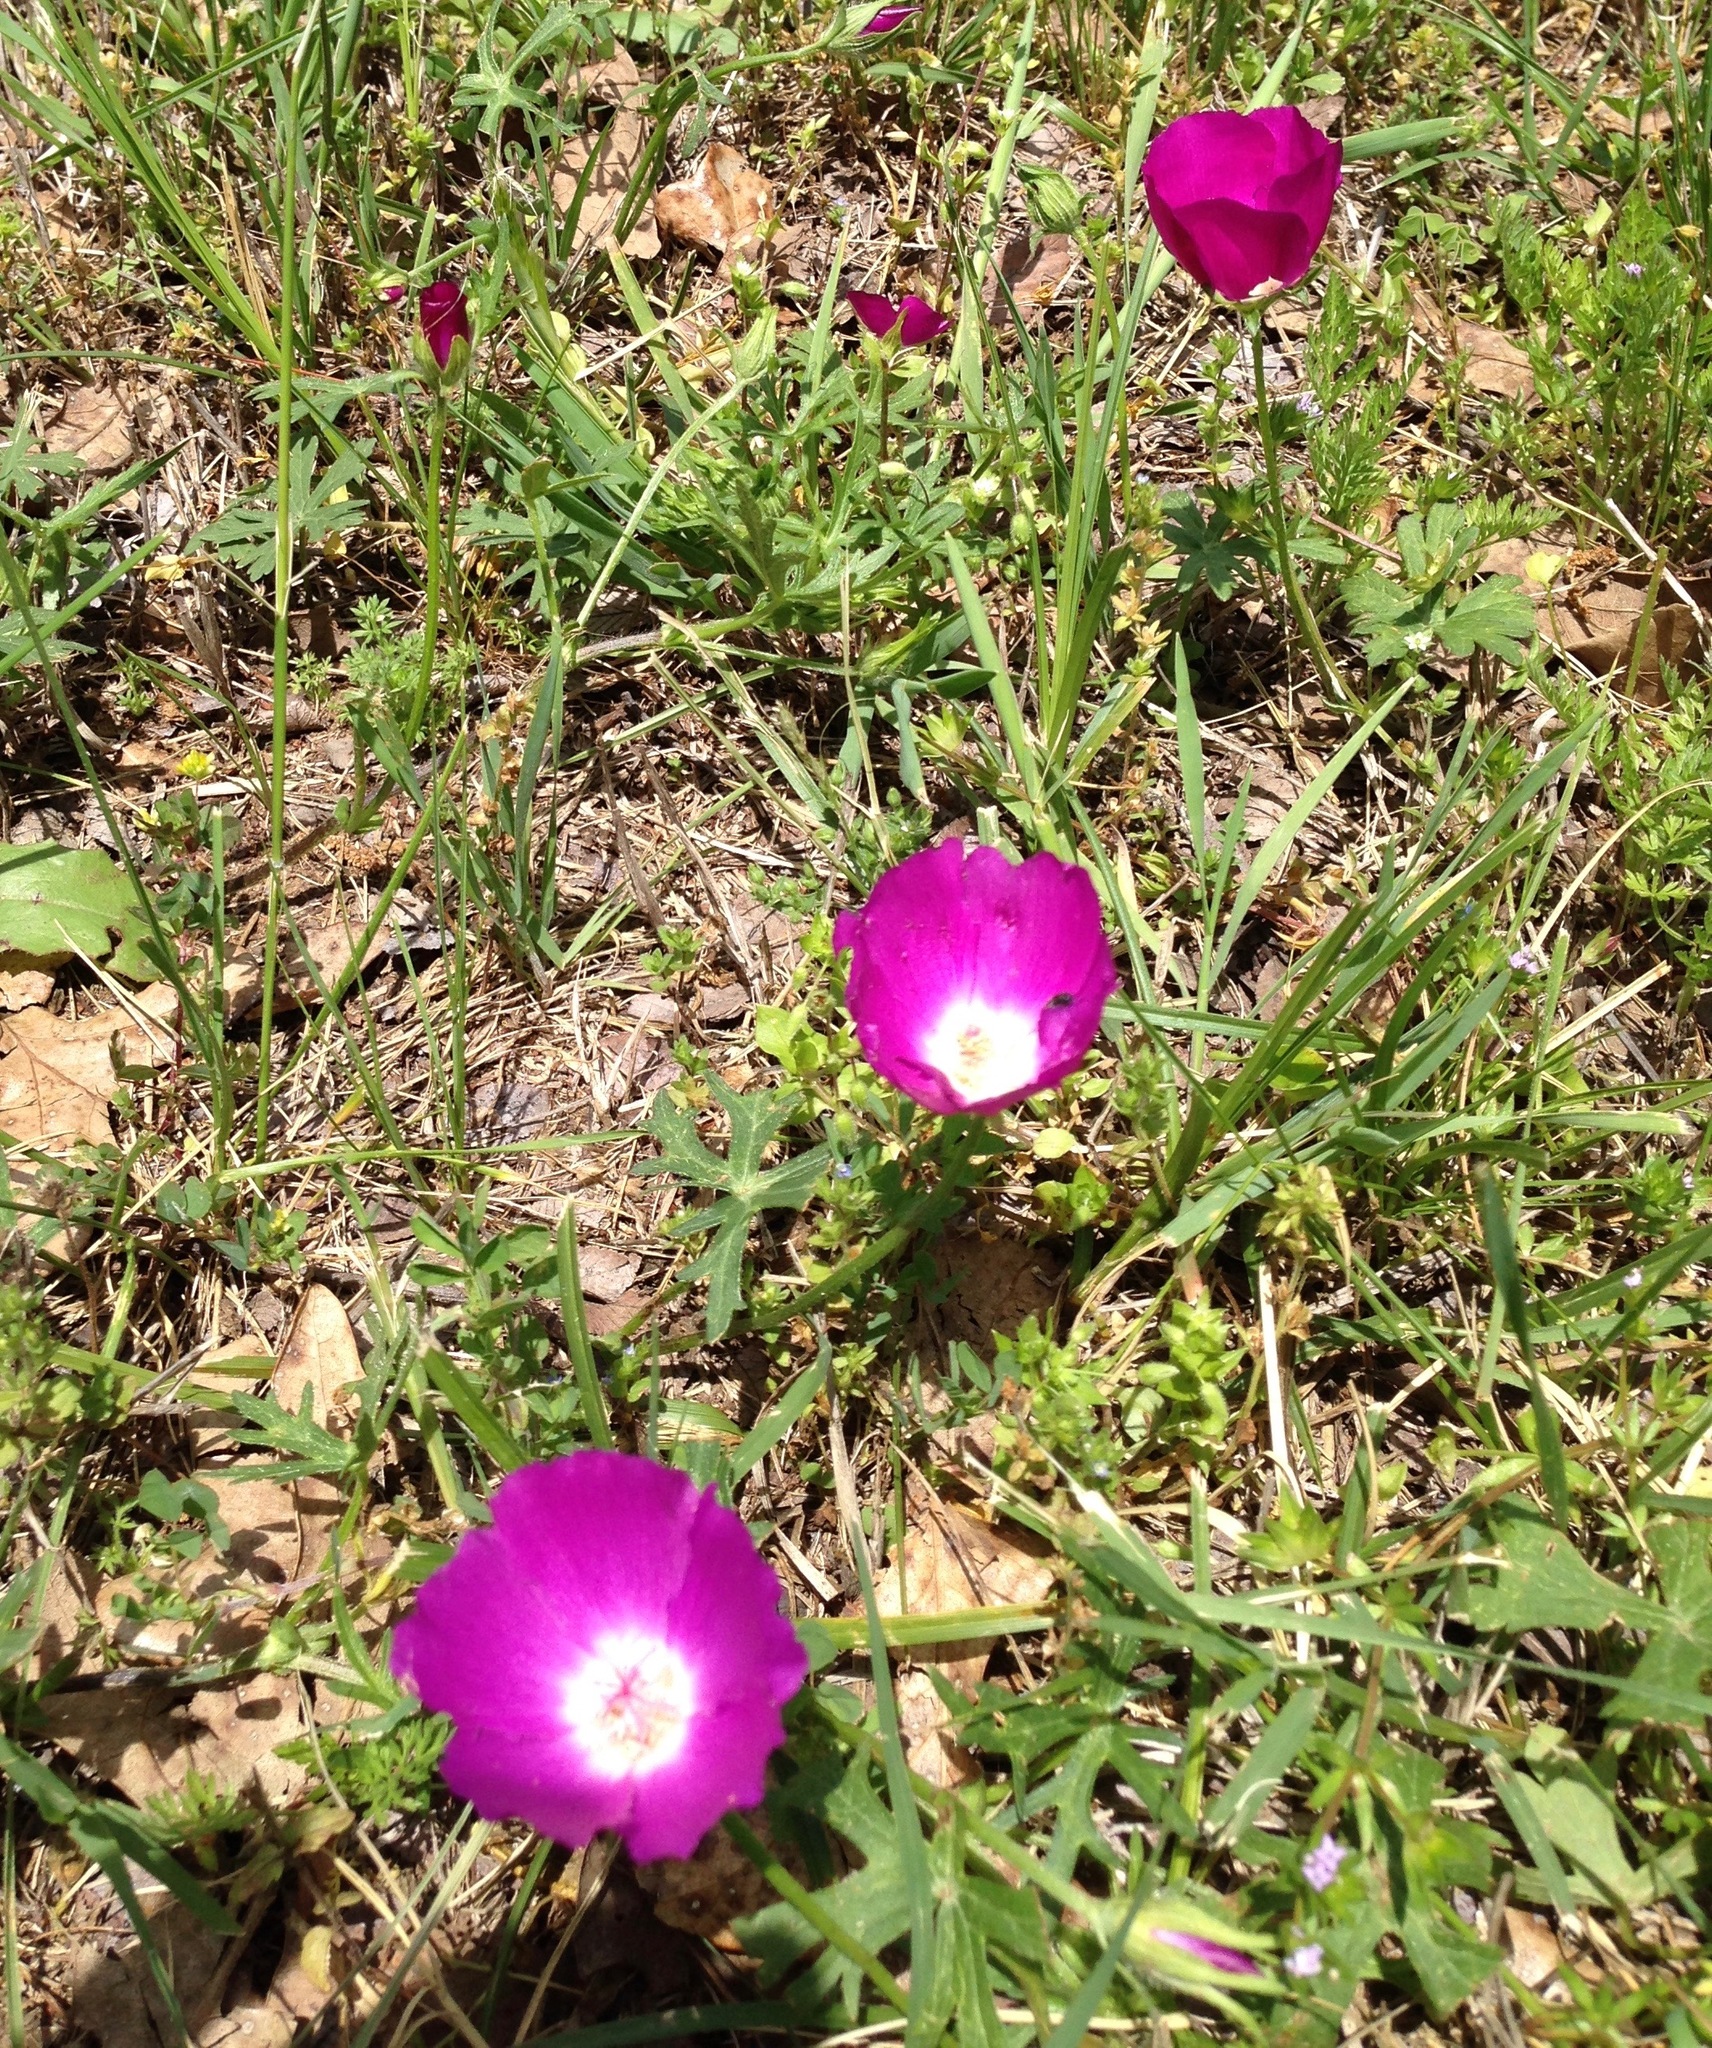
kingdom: Plantae
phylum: Tracheophyta
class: Magnoliopsida
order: Malvales
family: Malvaceae
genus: Callirhoe
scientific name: Callirhoe involucrata
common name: Purple poppy-mallow
